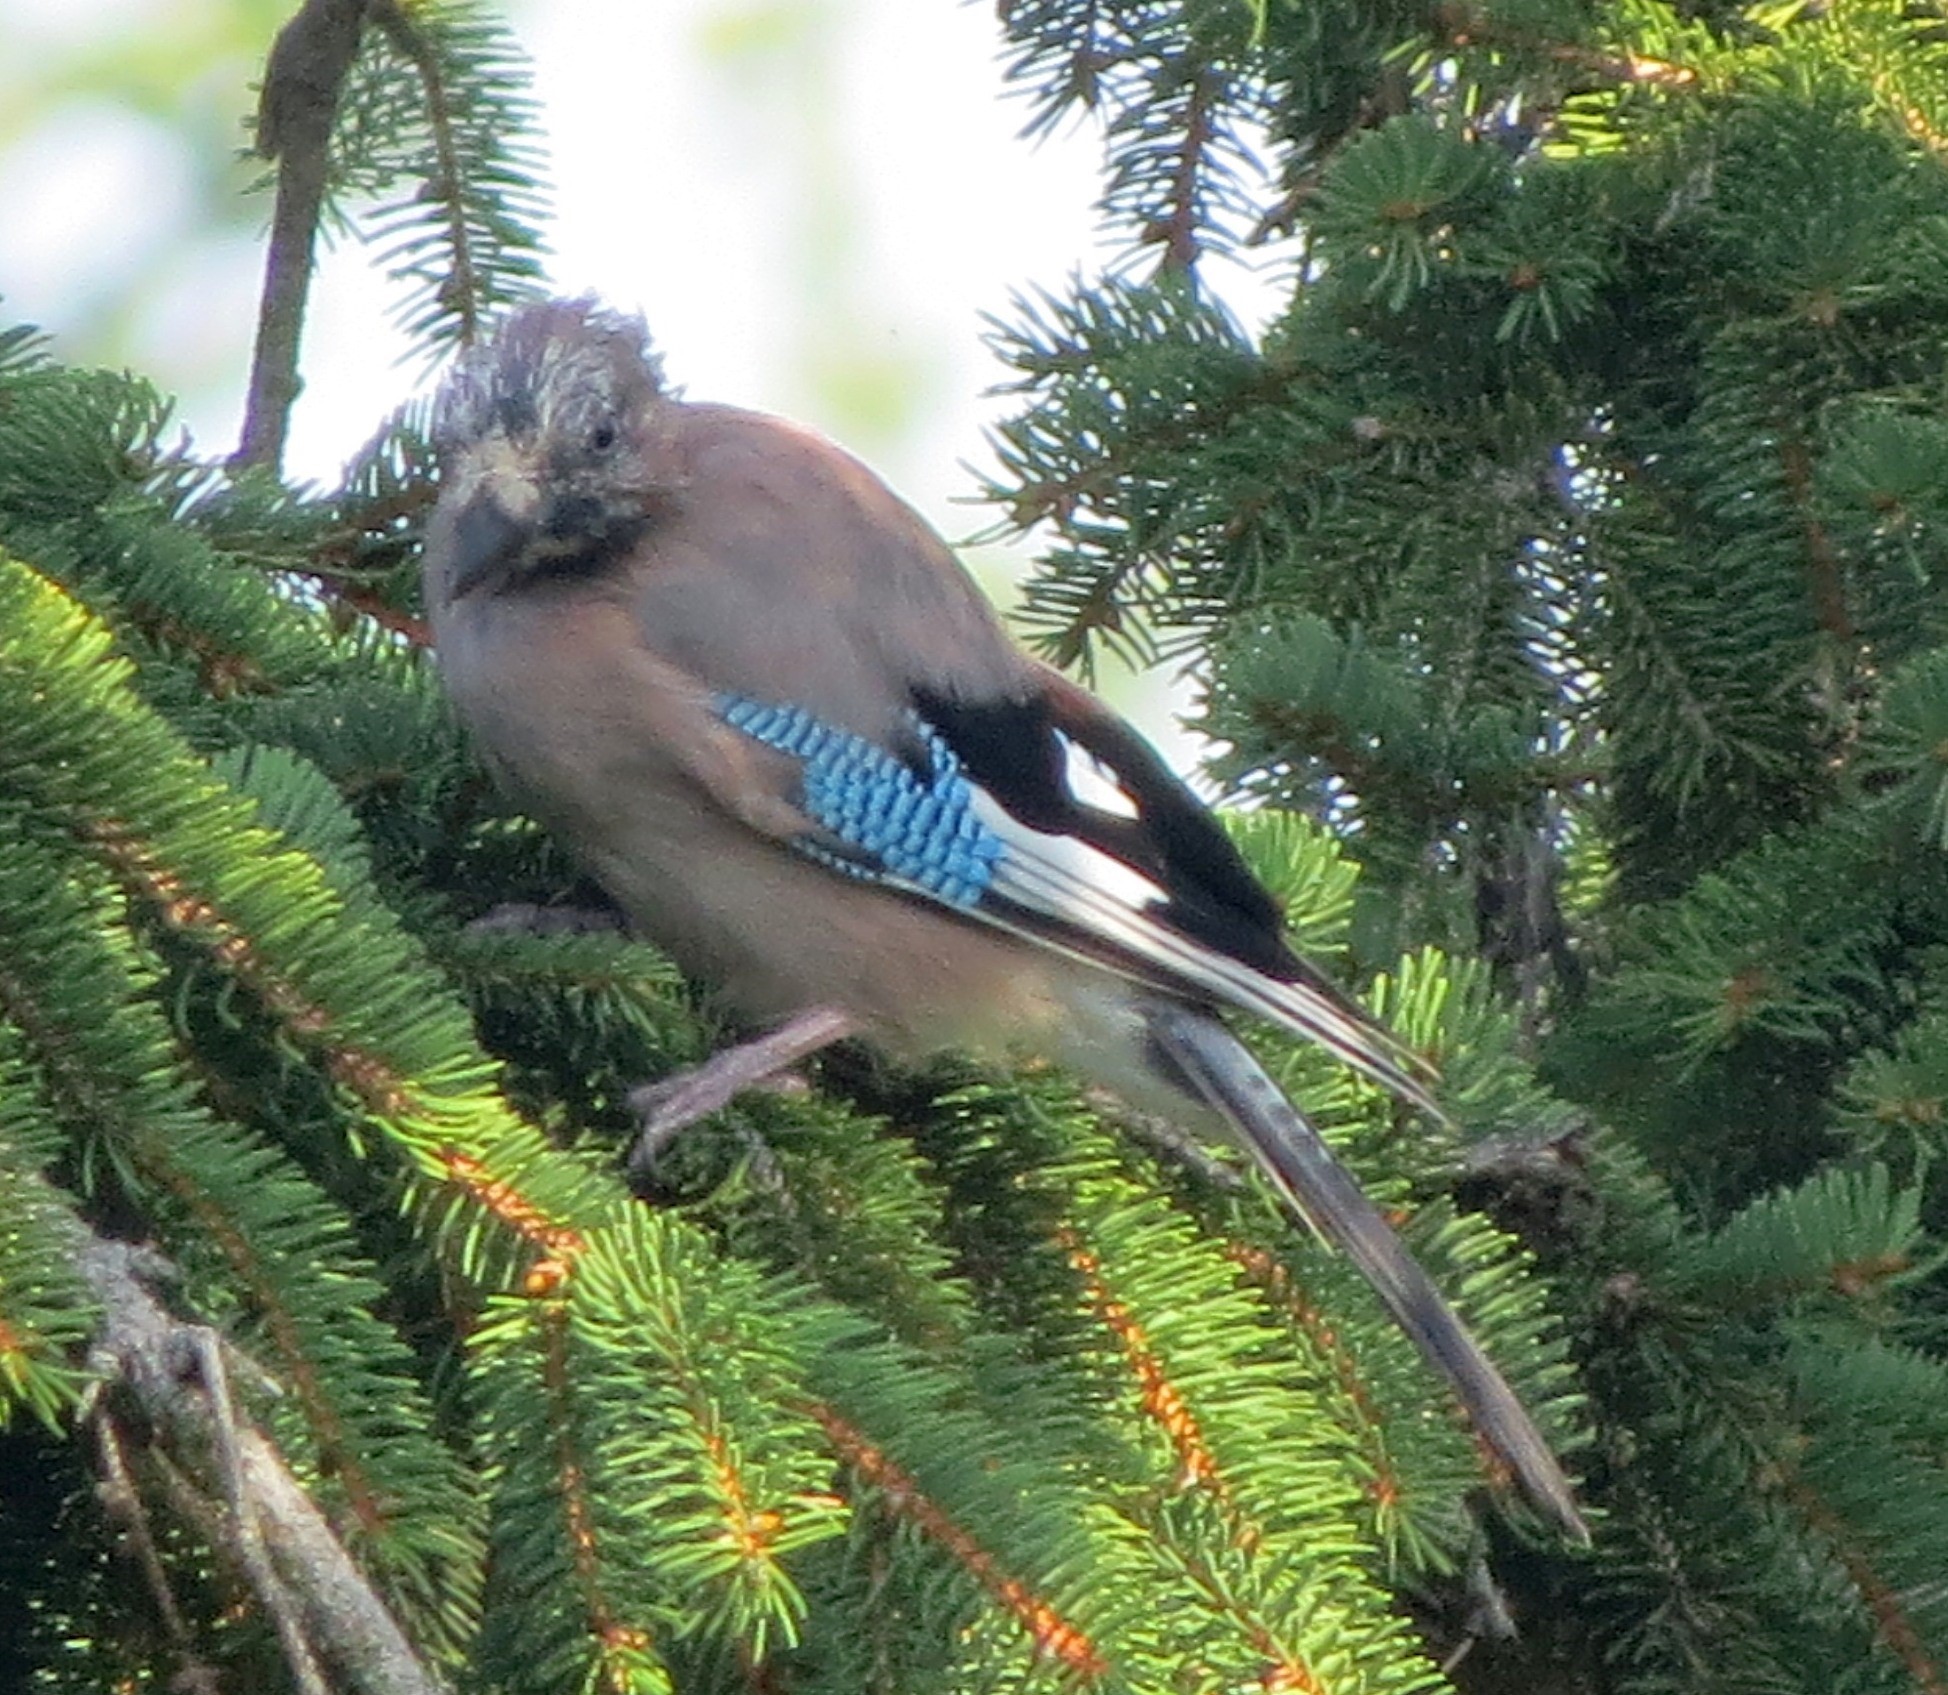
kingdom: Animalia
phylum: Chordata
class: Aves
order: Passeriformes
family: Corvidae
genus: Garrulus
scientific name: Garrulus glandarius
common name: Eurasian jay
